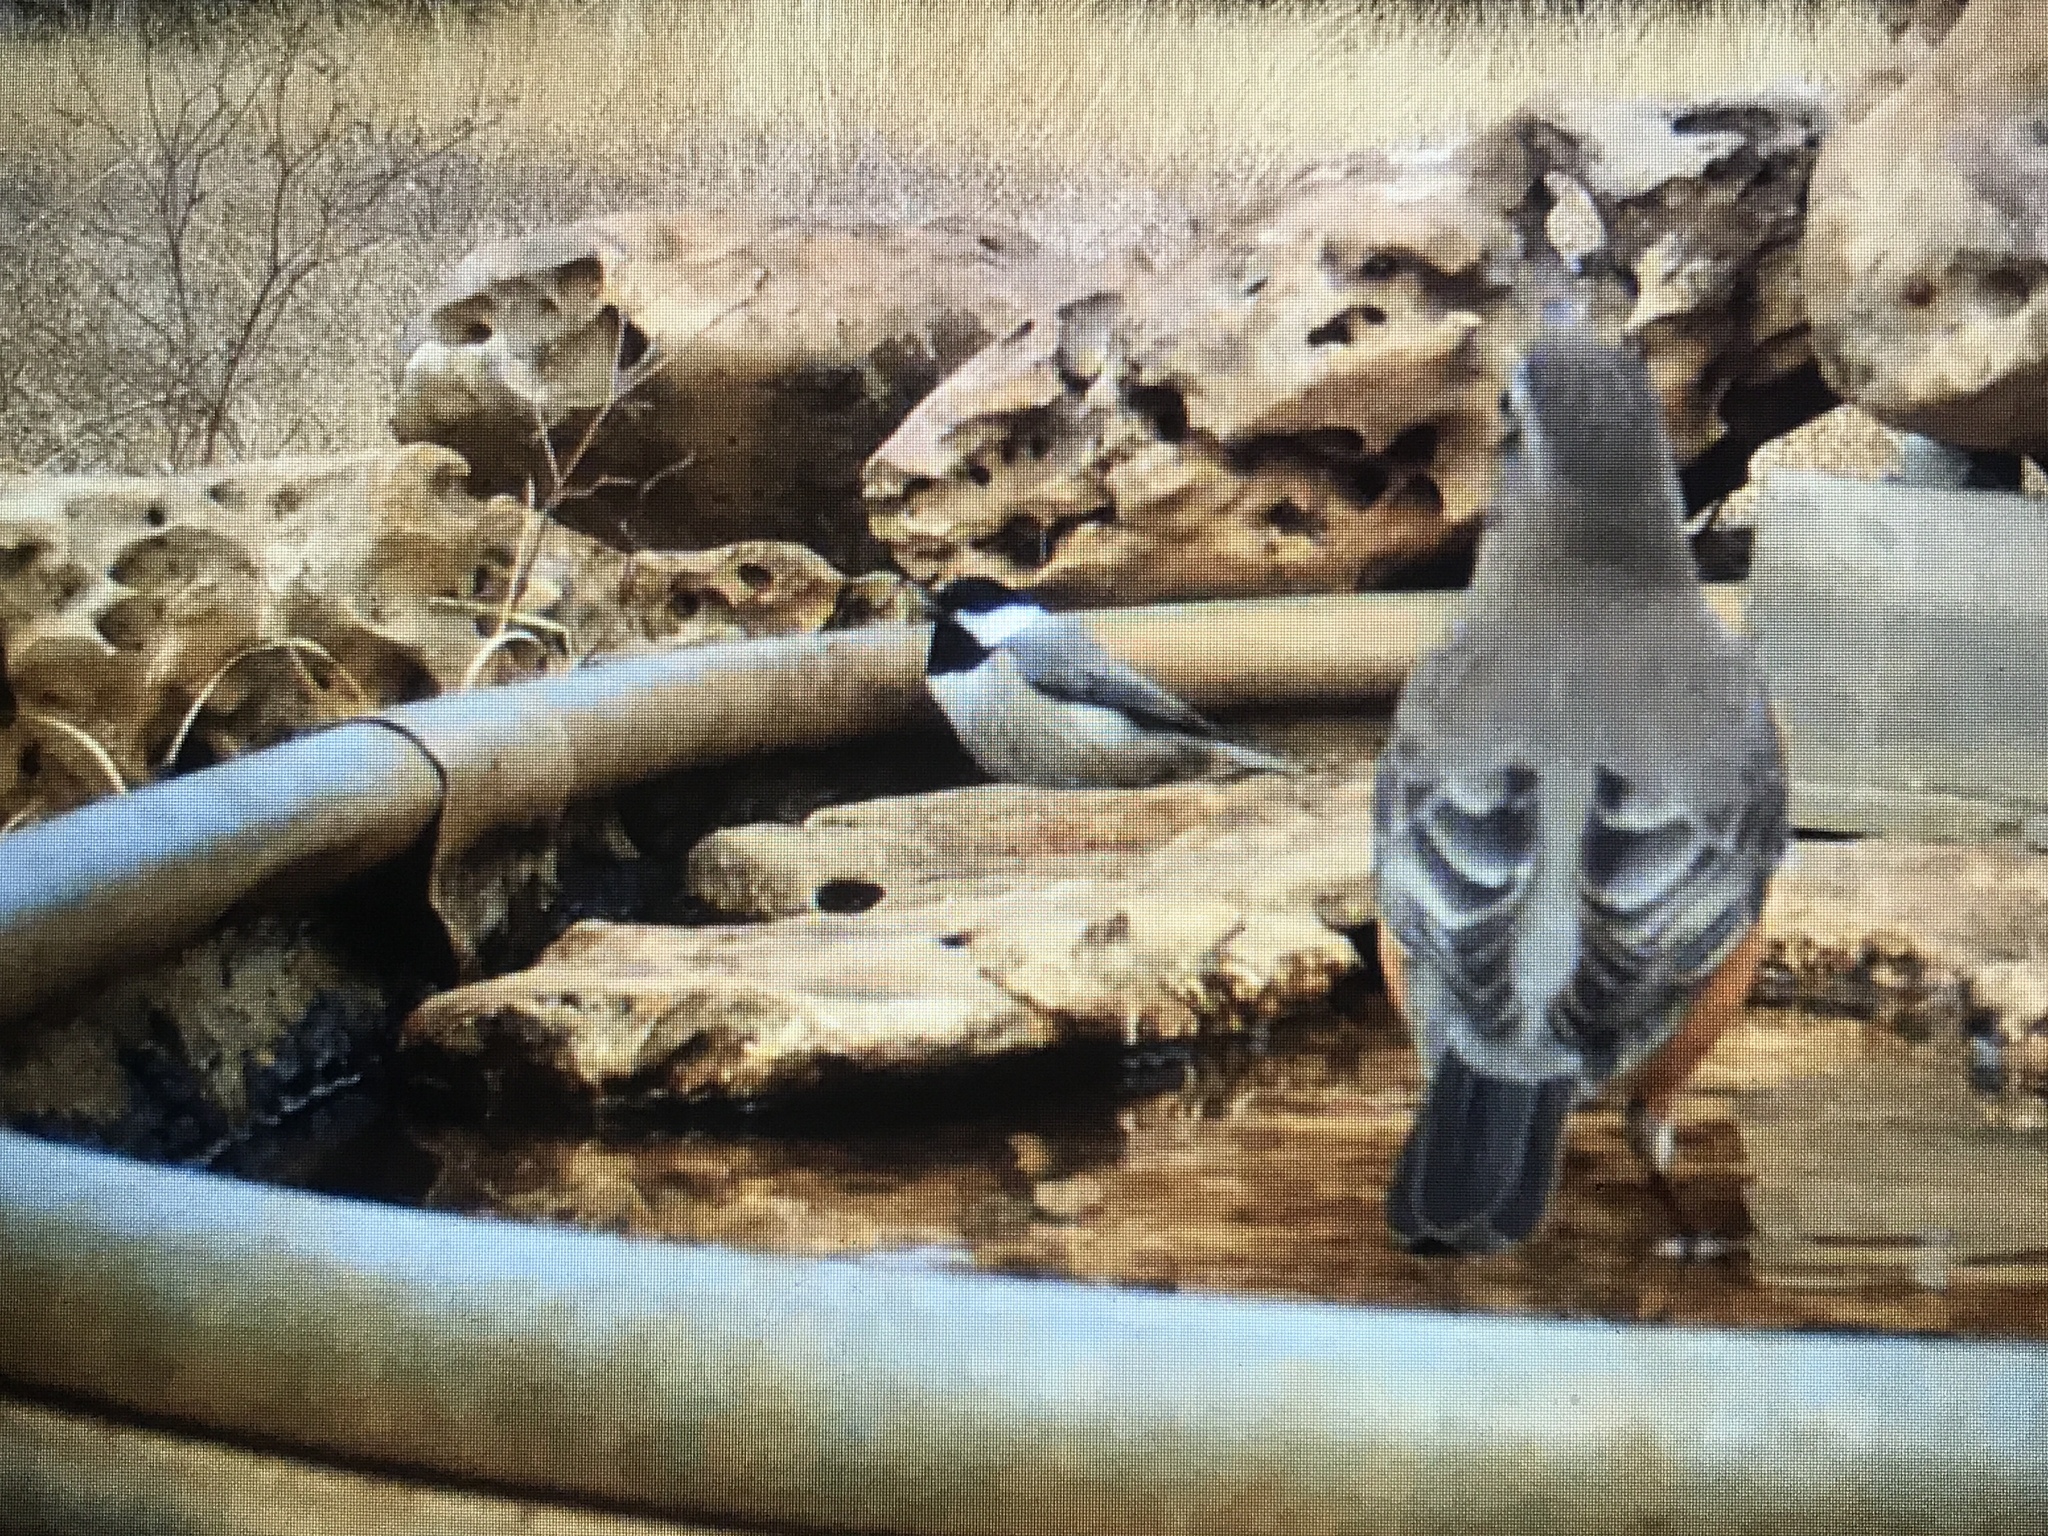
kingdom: Animalia
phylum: Chordata
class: Aves
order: Passeriformes
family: Paridae
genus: Poecile
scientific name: Poecile carolinensis
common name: Carolina chickadee
